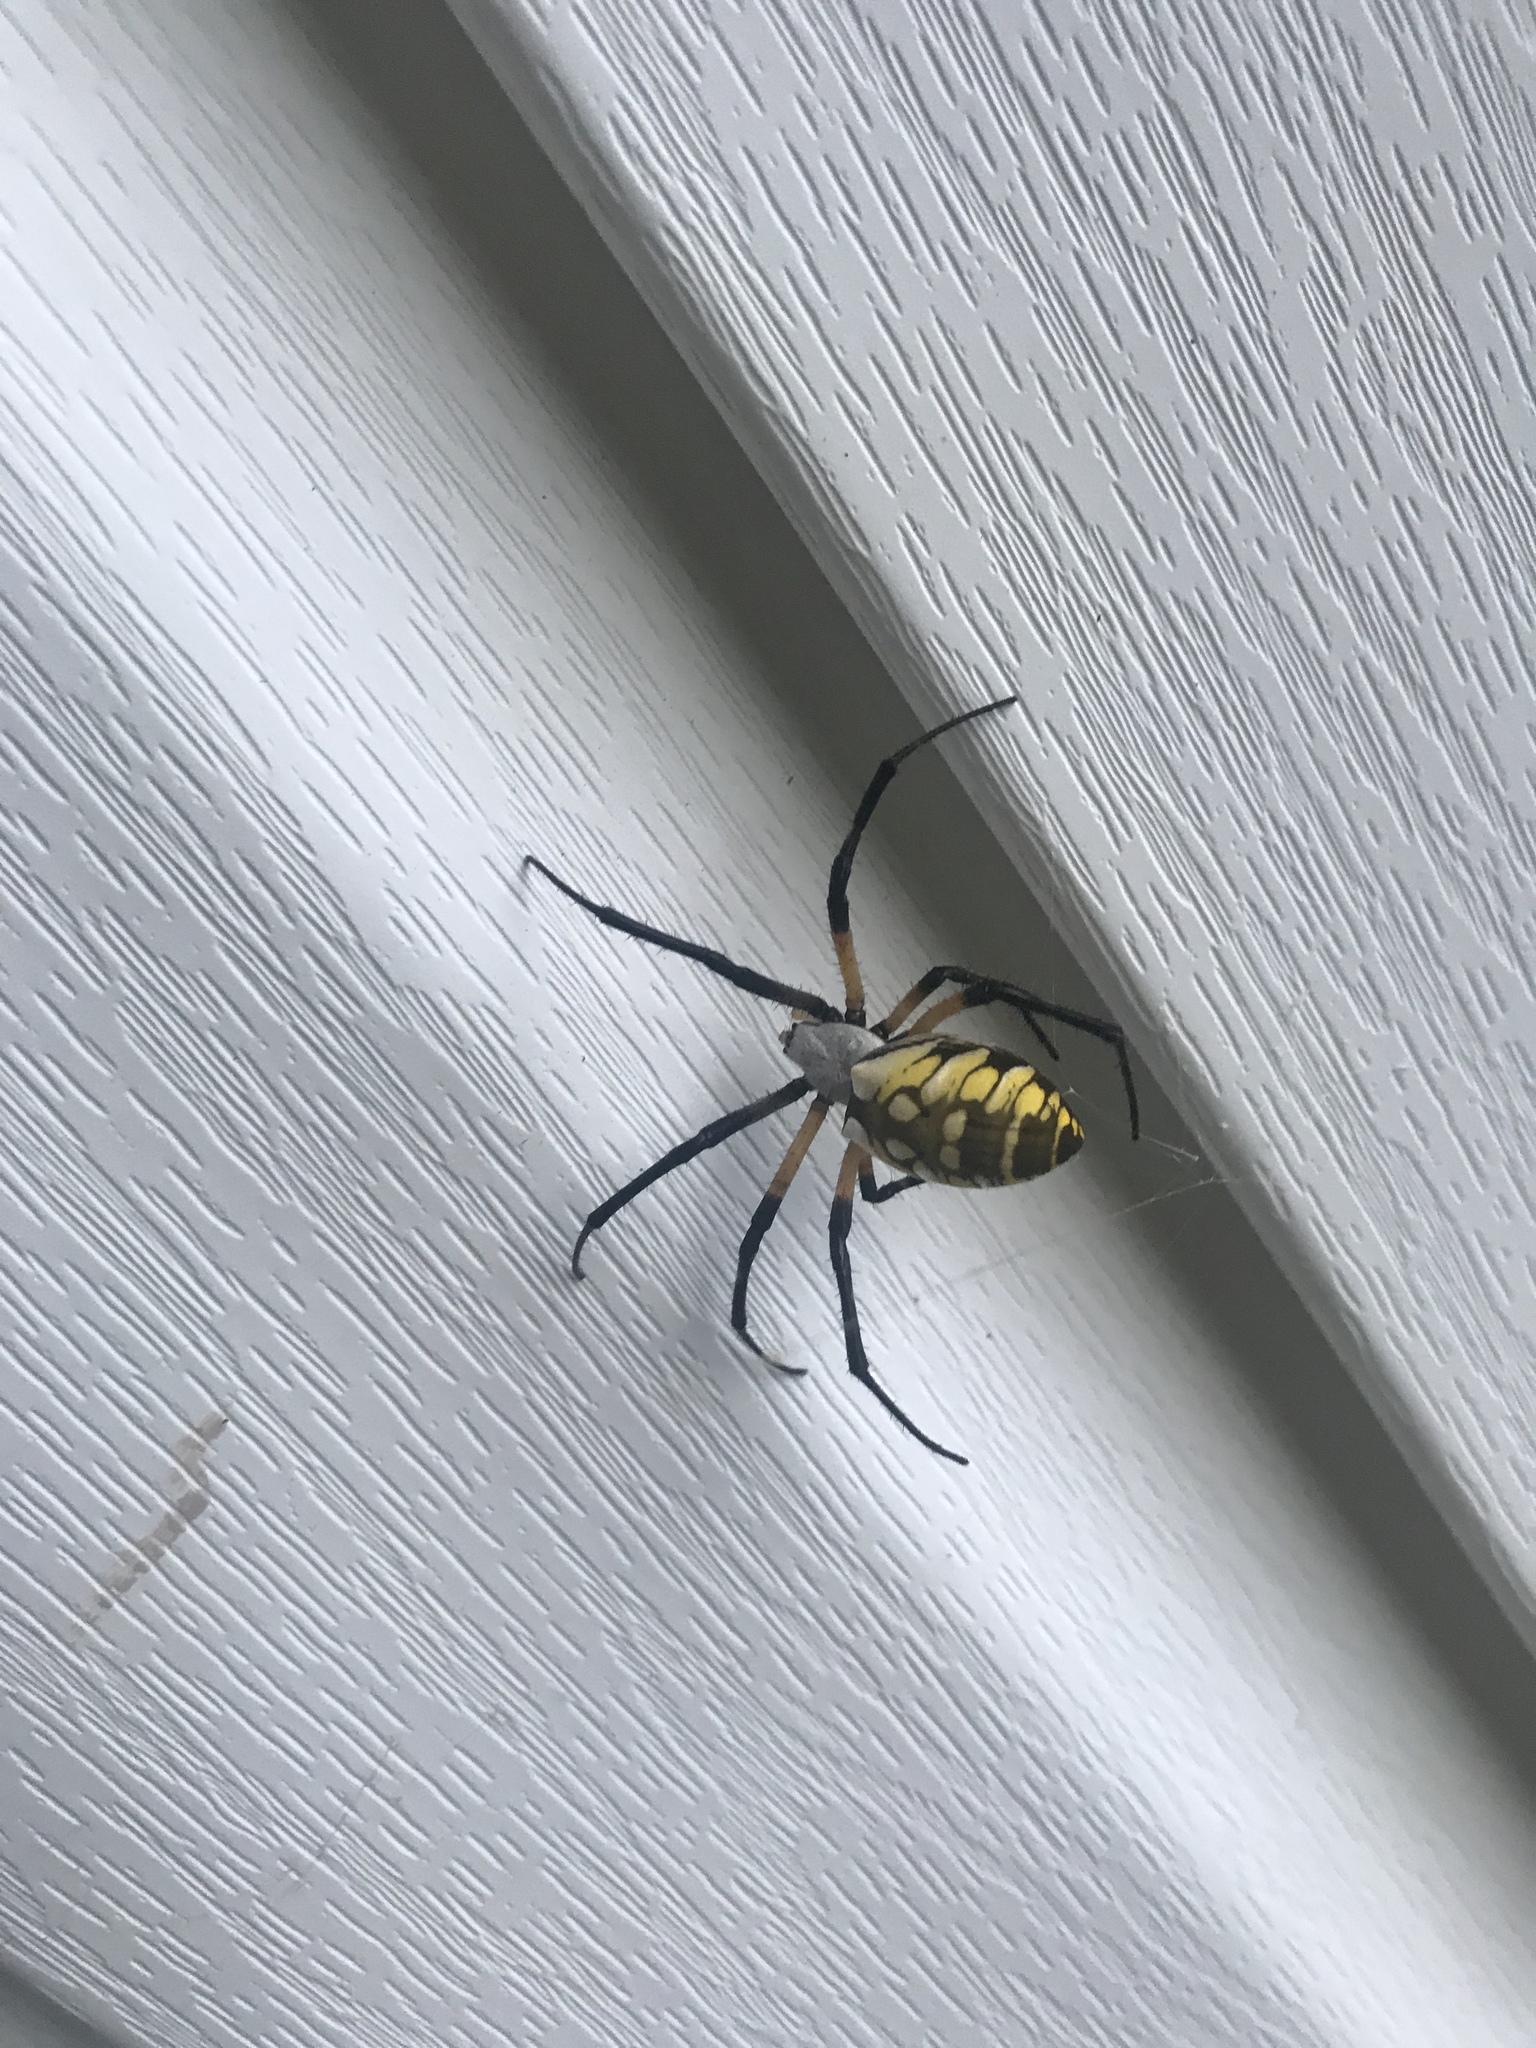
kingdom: Animalia
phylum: Arthropoda
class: Arachnida
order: Araneae
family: Araneidae
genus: Argiope
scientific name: Argiope aurantia
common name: Orb weavers
